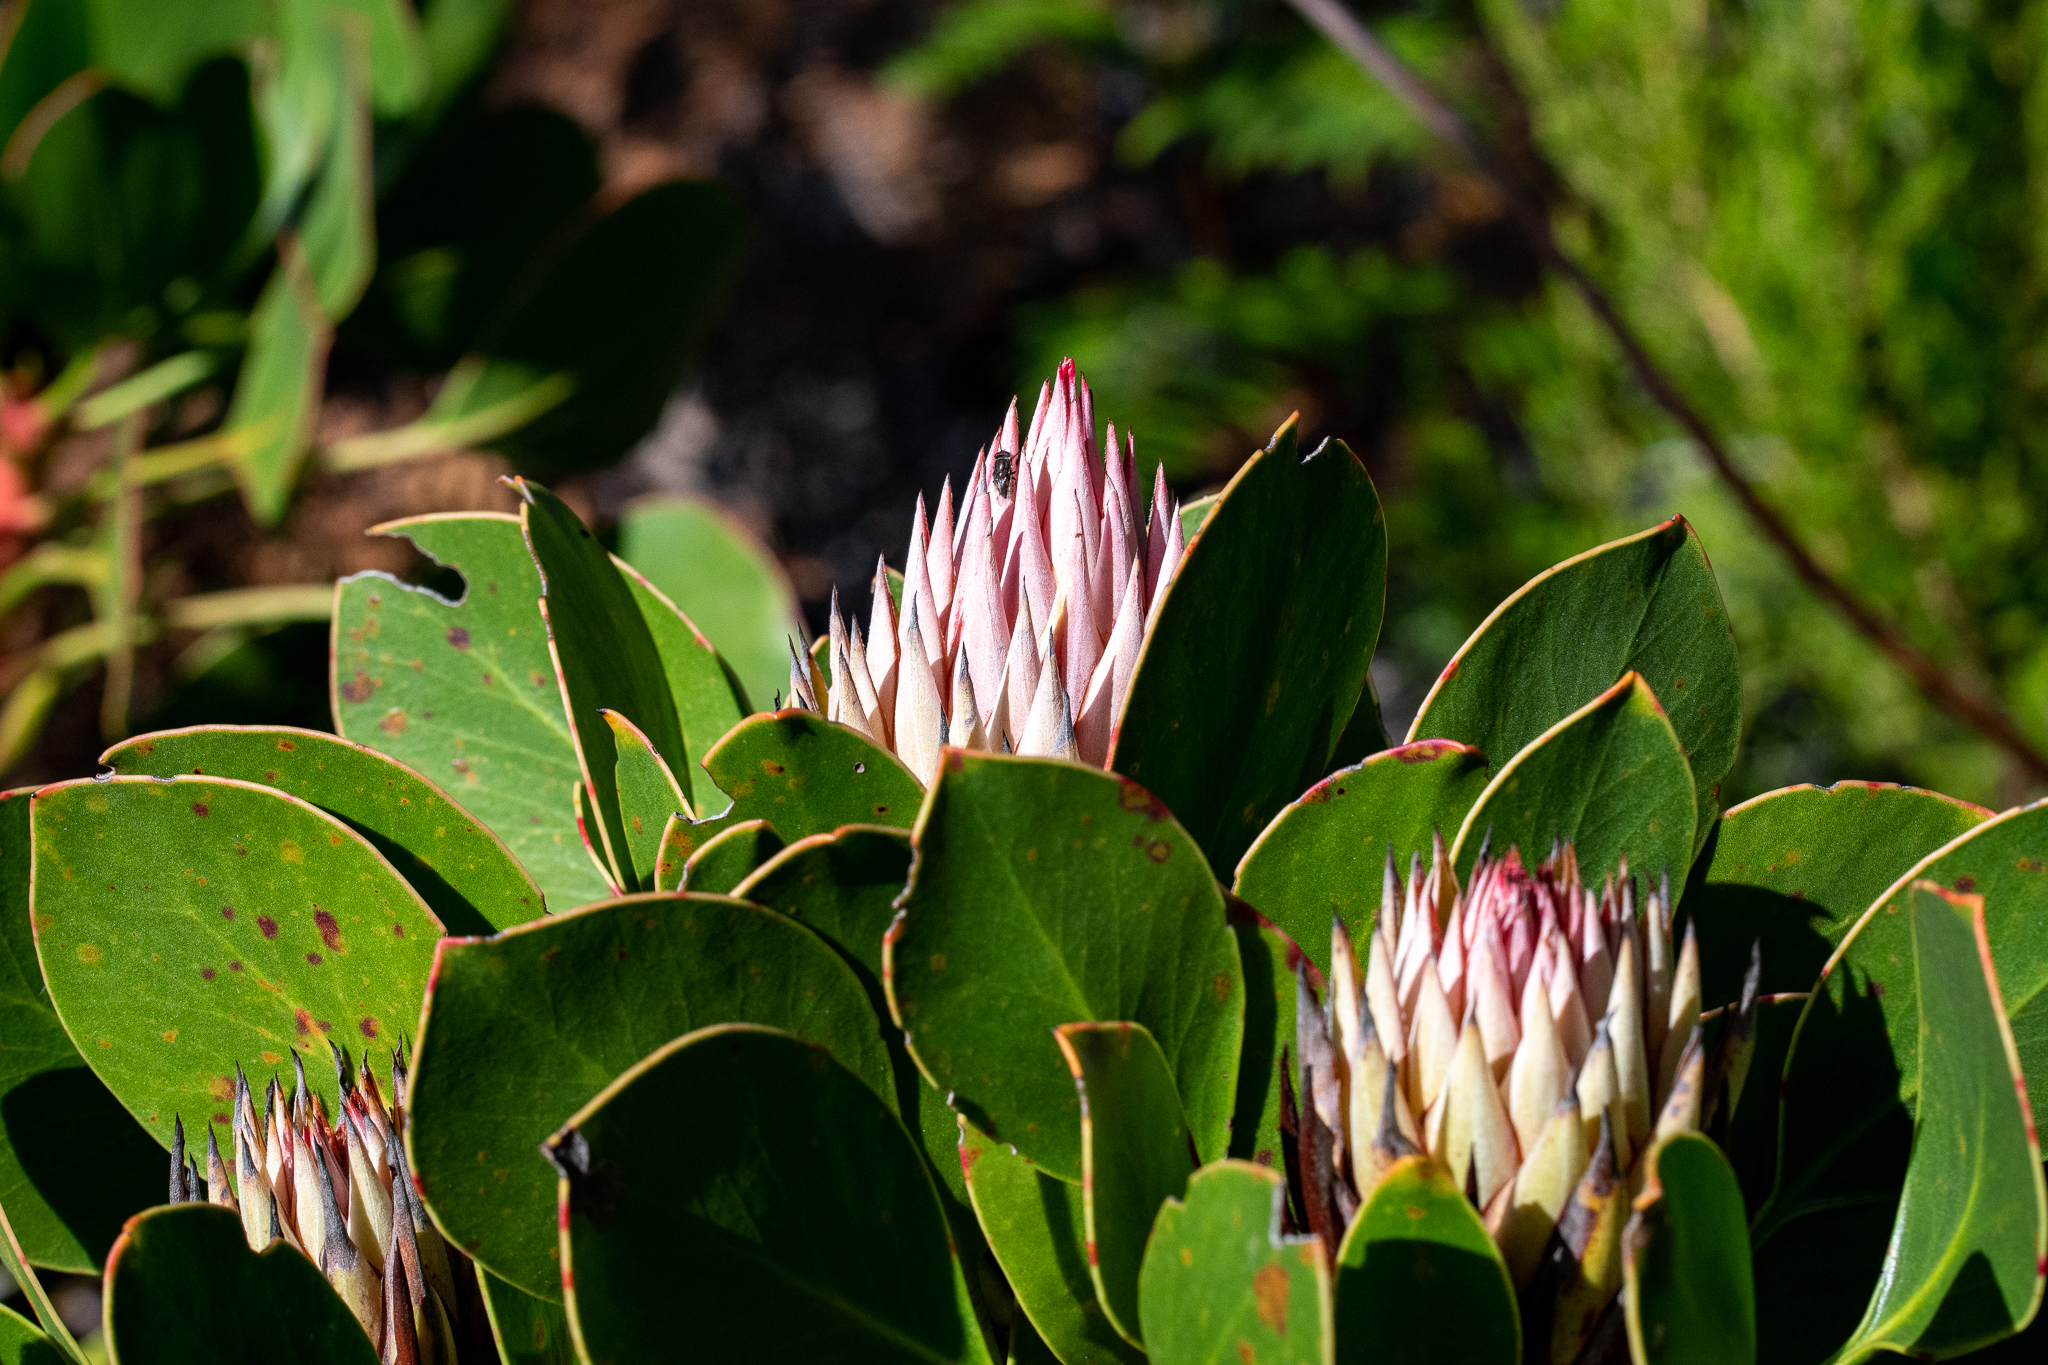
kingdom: Plantae
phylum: Tracheophyta
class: Magnoliopsida
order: Proteales
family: Proteaceae
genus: Protea
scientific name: Protea cynaroides
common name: King protea
